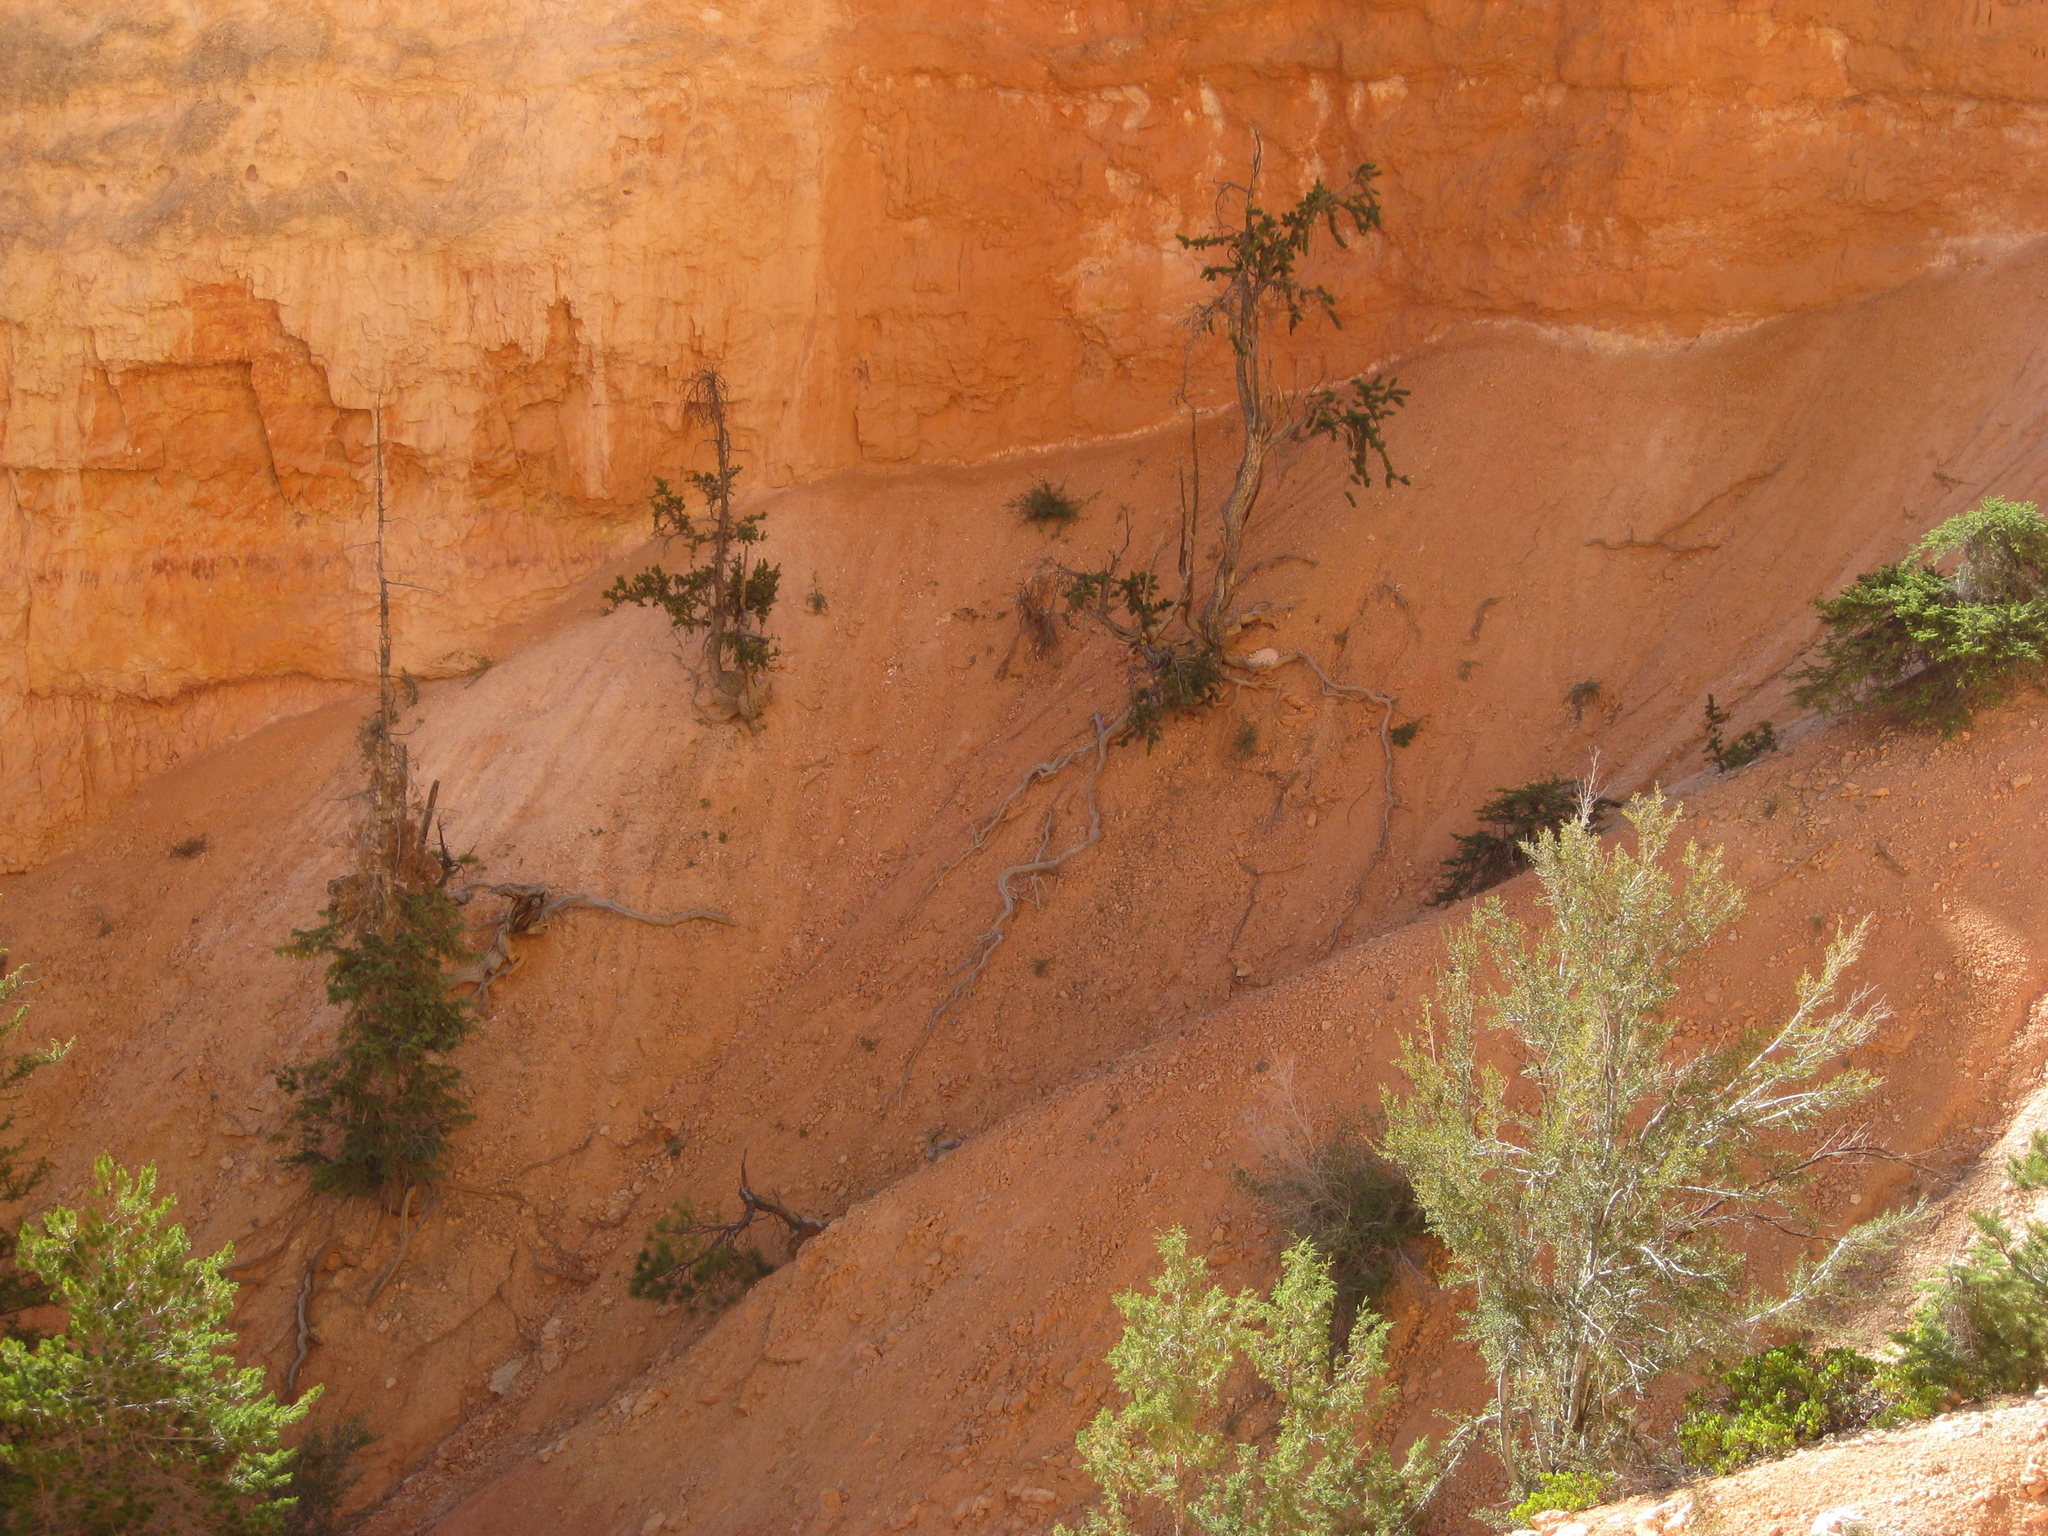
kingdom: Plantae
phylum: Tracheophyta
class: Pinopsida
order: Pinales
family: Pinaceae
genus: Pinus
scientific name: Pinus longaeva
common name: Intermountain bristlecone pine
